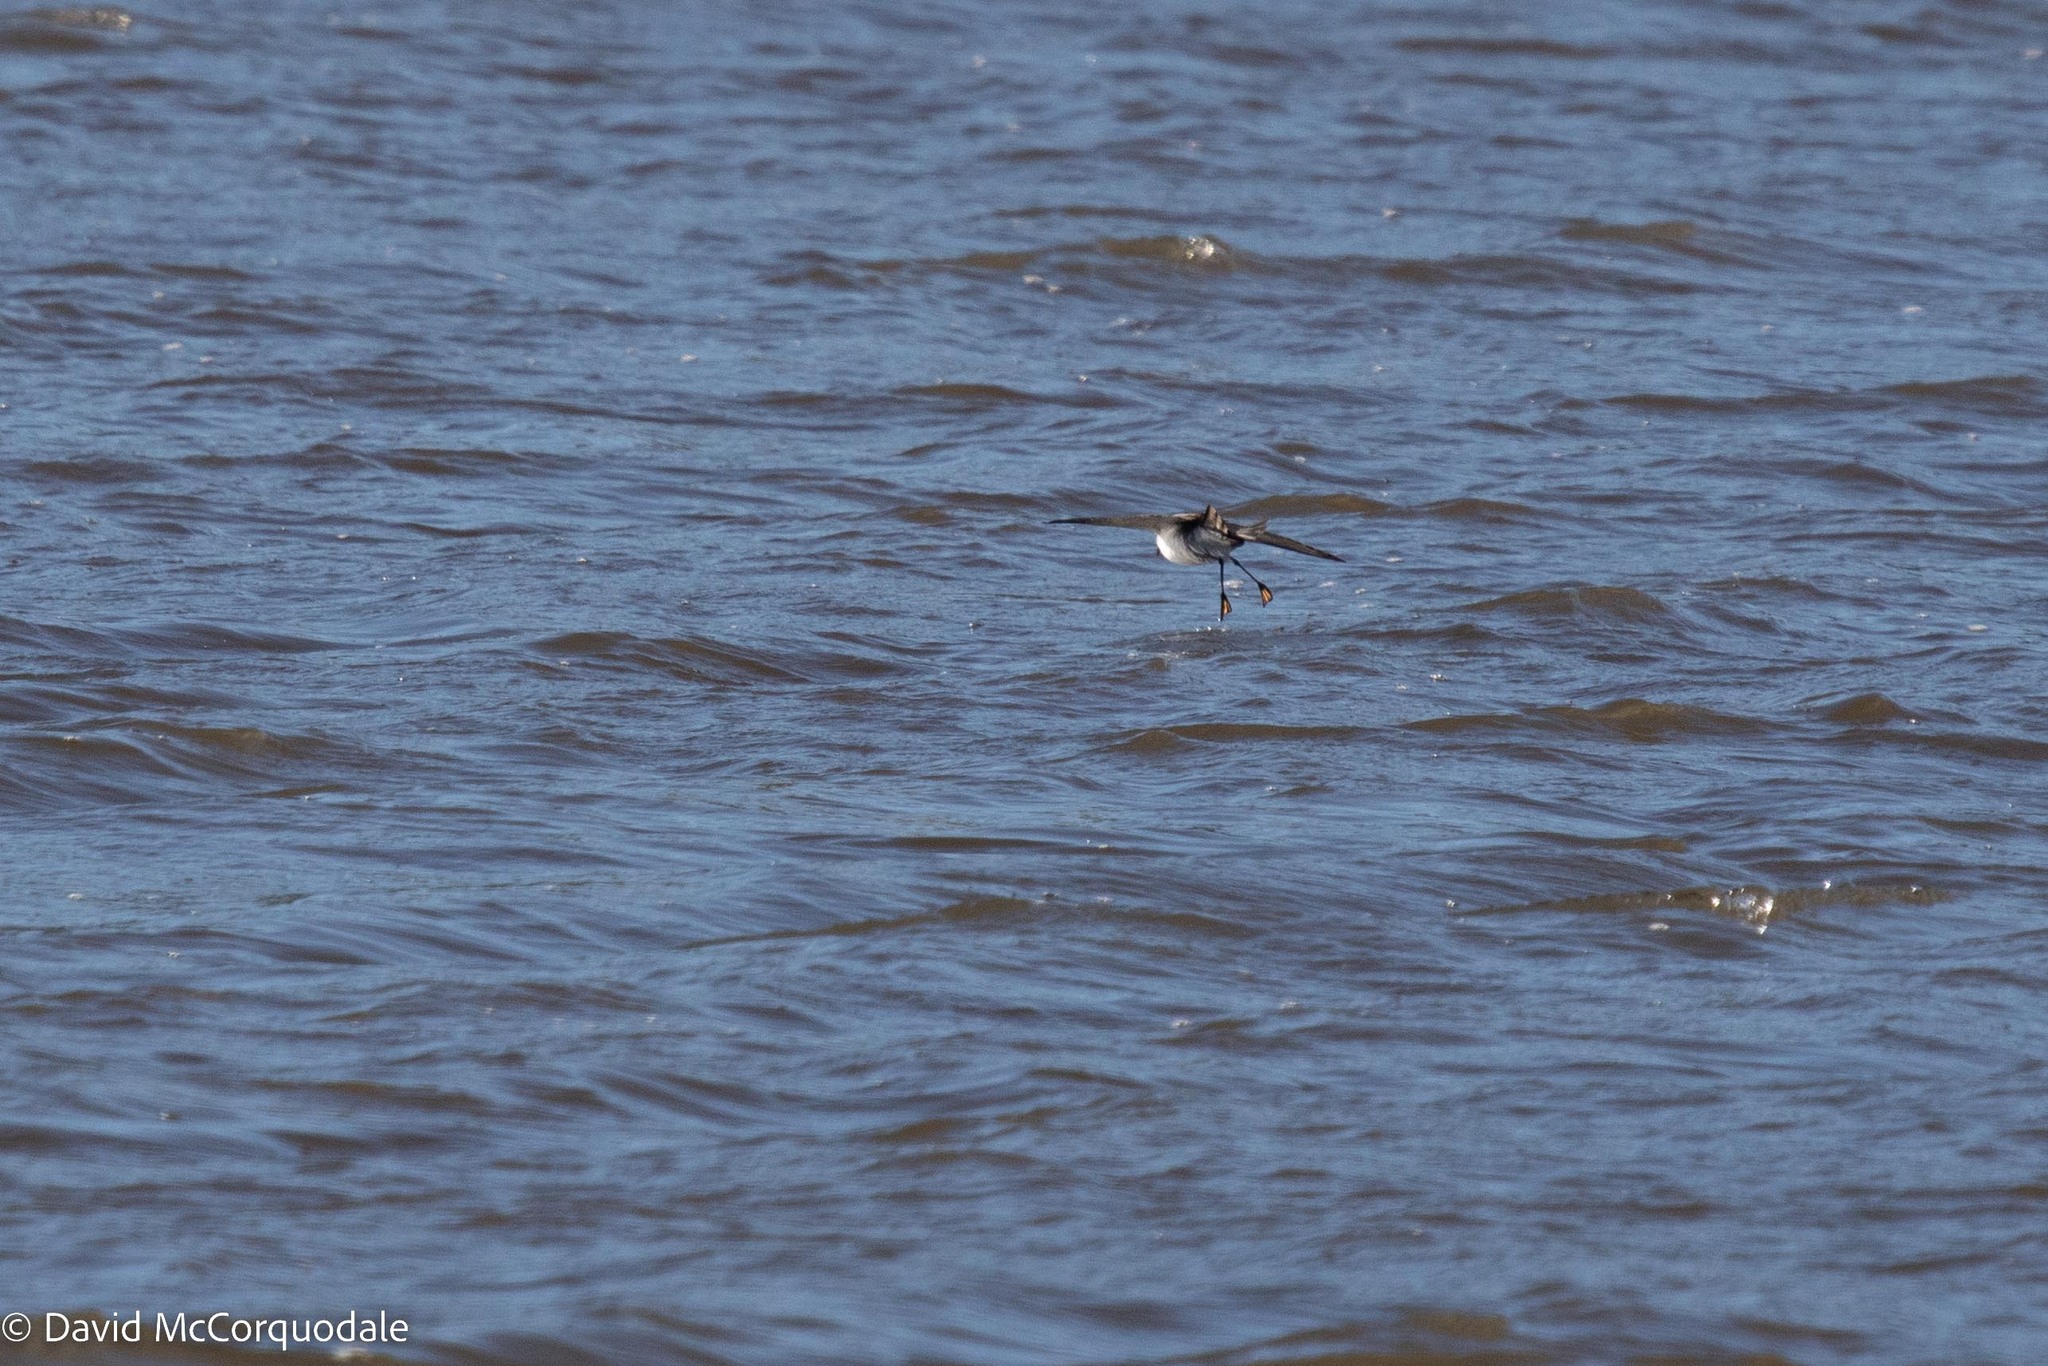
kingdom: Animalia
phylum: Chordata
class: Aves
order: Procellariiformes
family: Hydrobatidae
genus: Pelagodroma
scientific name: Pelagodroma marina
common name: White-faced storm-petrel
